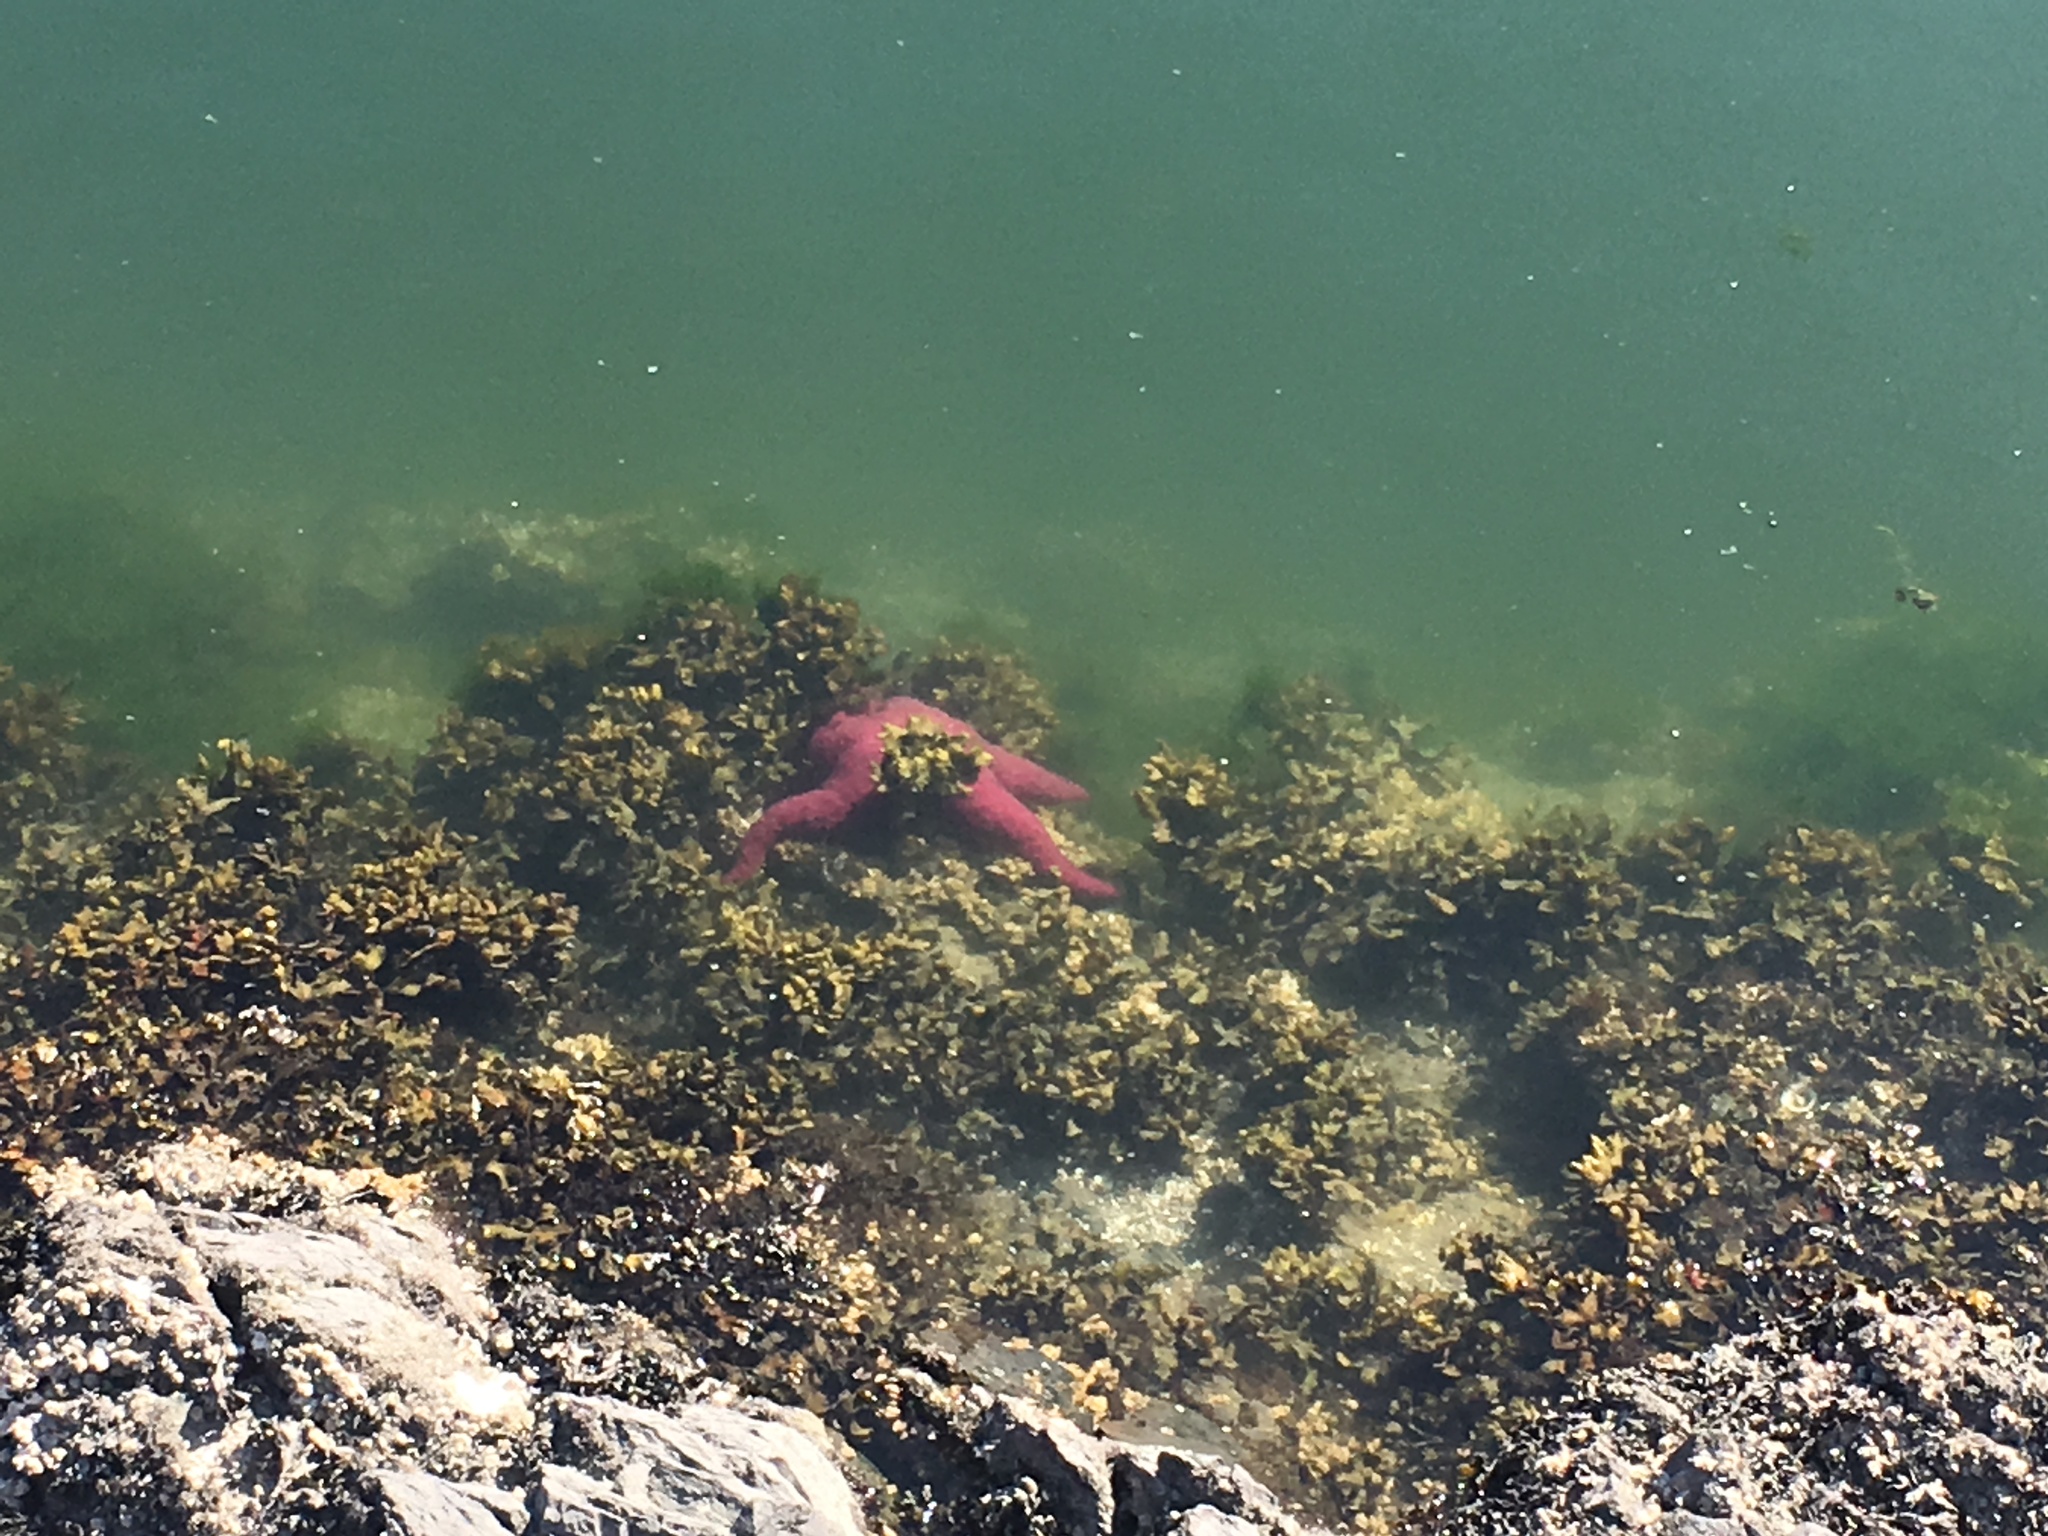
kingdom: Animalia
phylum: Echinodermata
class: Asteroidea
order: Forcipulatida
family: Asteriidae
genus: Pisaster
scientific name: Pisaster ochraceus
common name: Ochre stars
